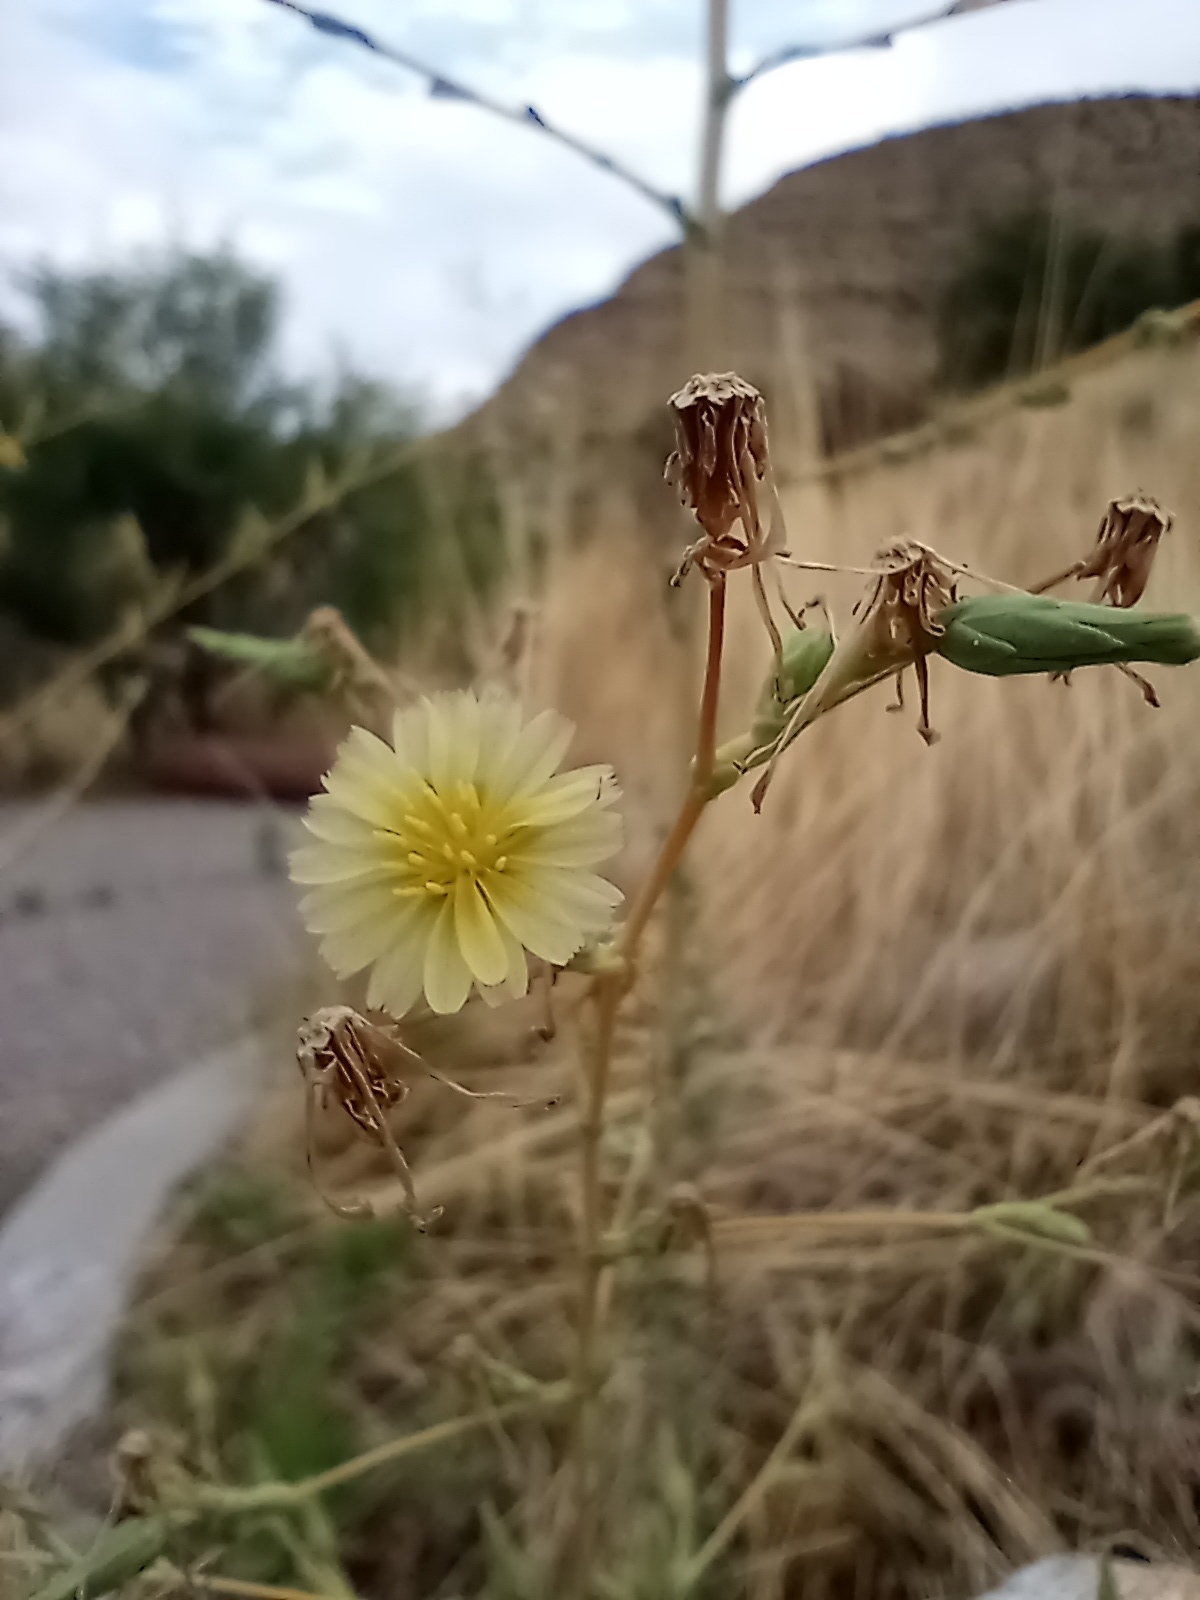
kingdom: Plantae
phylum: Tracheophyta
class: Magnoliopsida
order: Asterales
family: Asteraceae
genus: Lactuca
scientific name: Lactuca serriola
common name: Prickly lettuce
